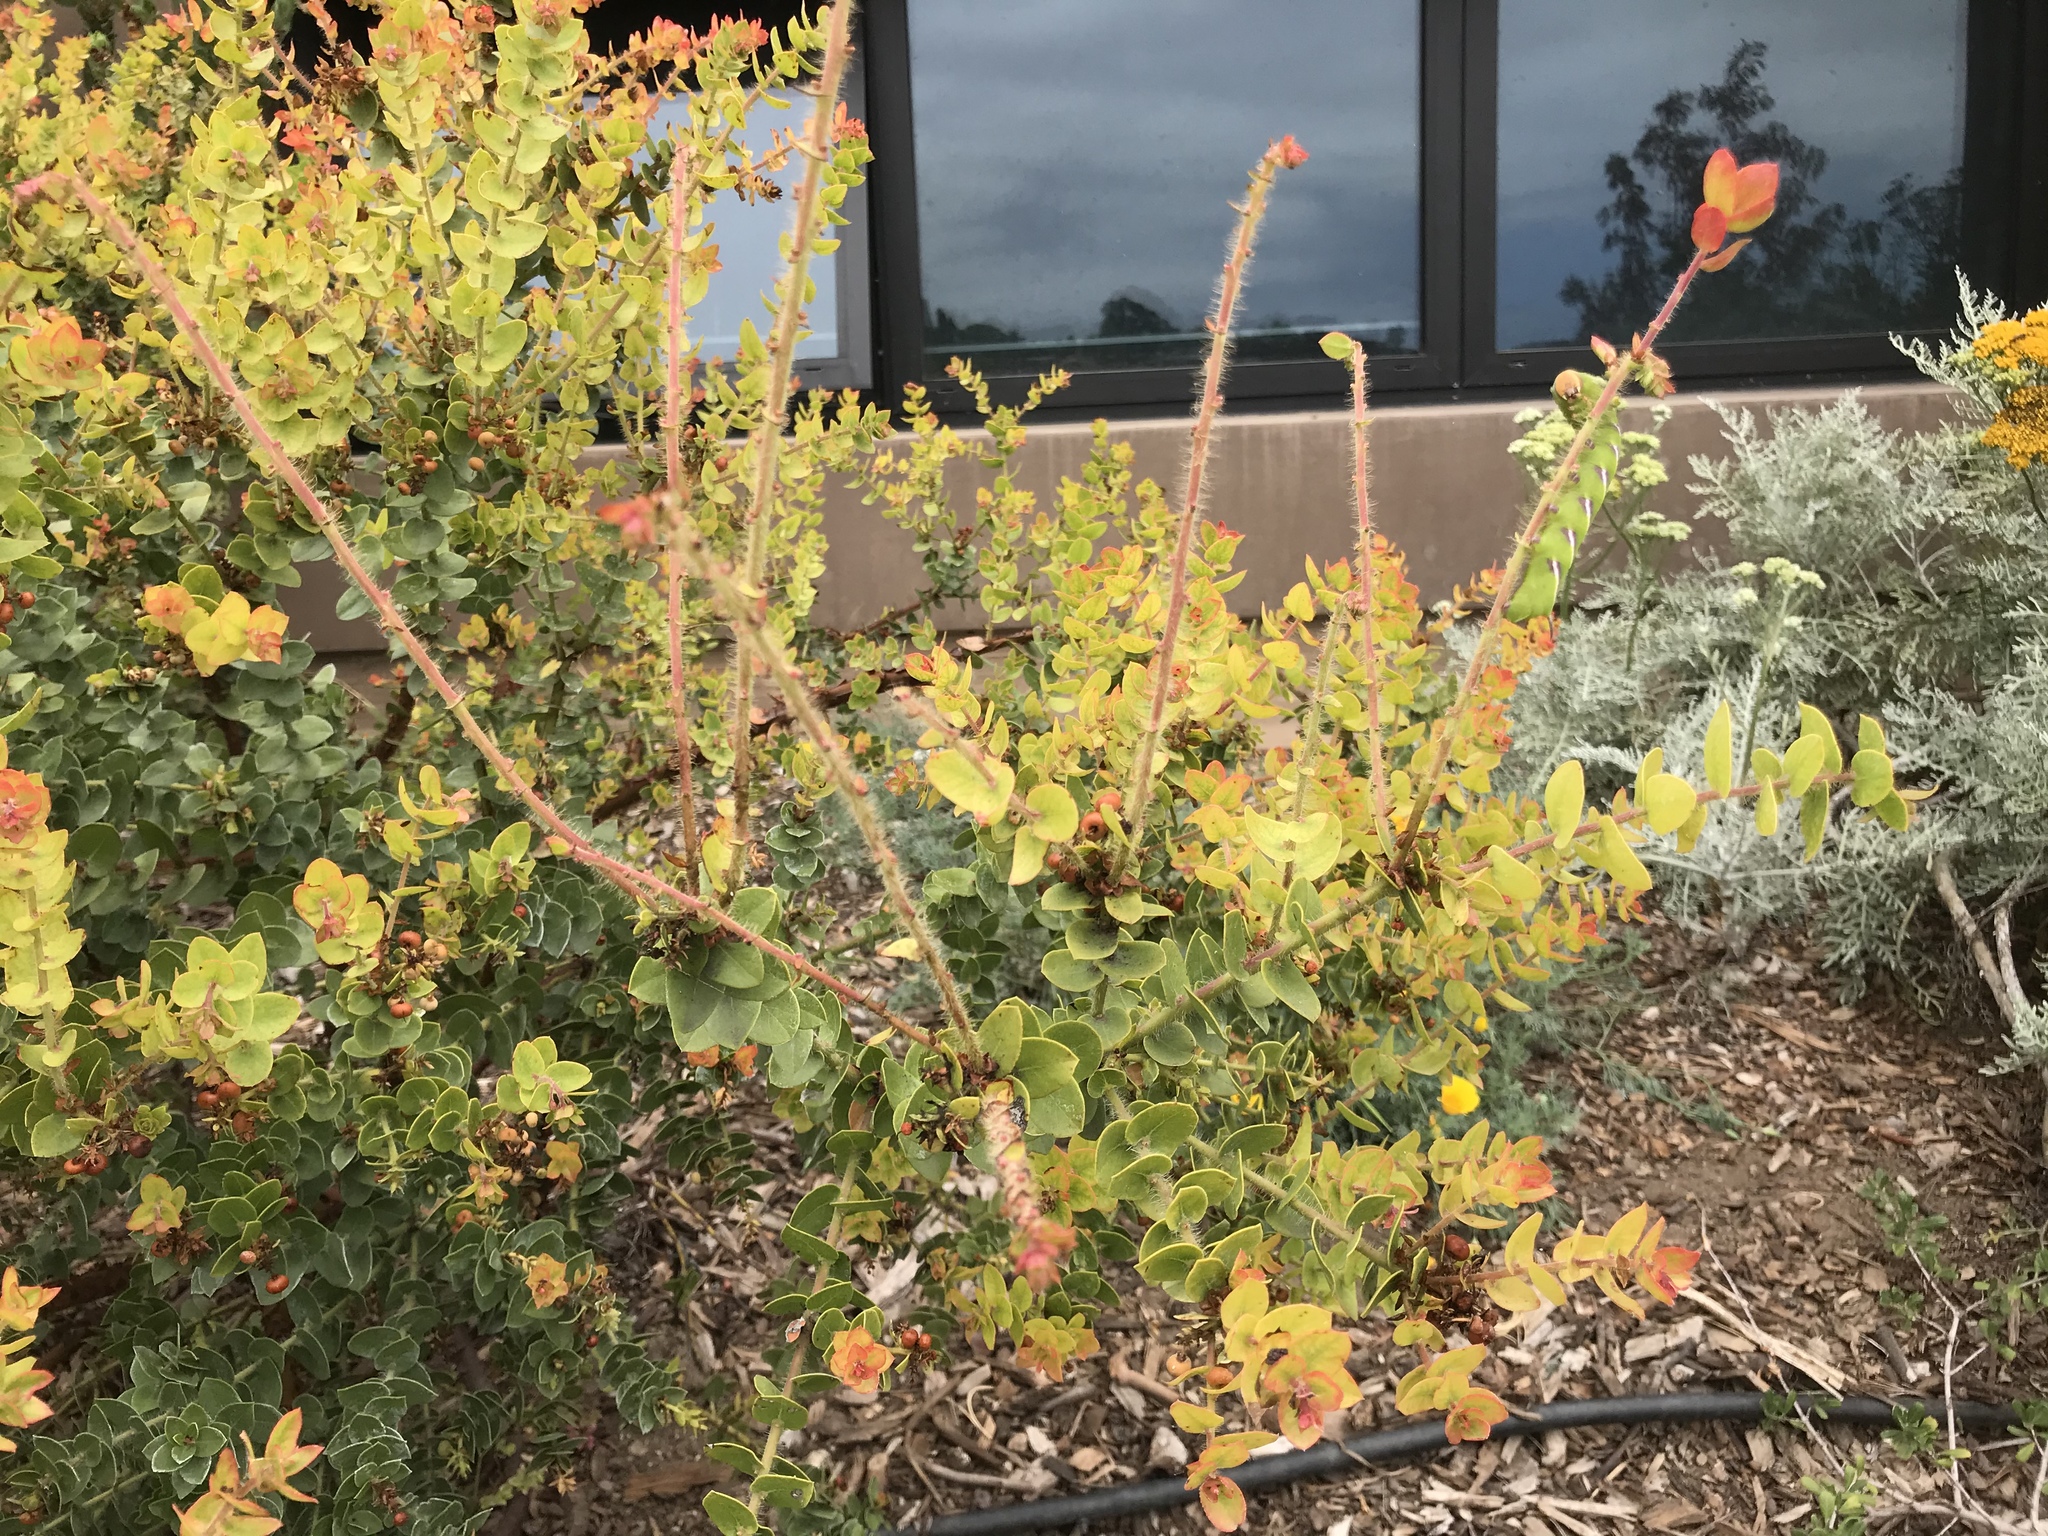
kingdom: Animalia
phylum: Arthropoda
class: Insecta
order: Lepidoptera
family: Sphingidae
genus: Sphinx
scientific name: Sphinx perelegans
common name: Elegant sphinx
